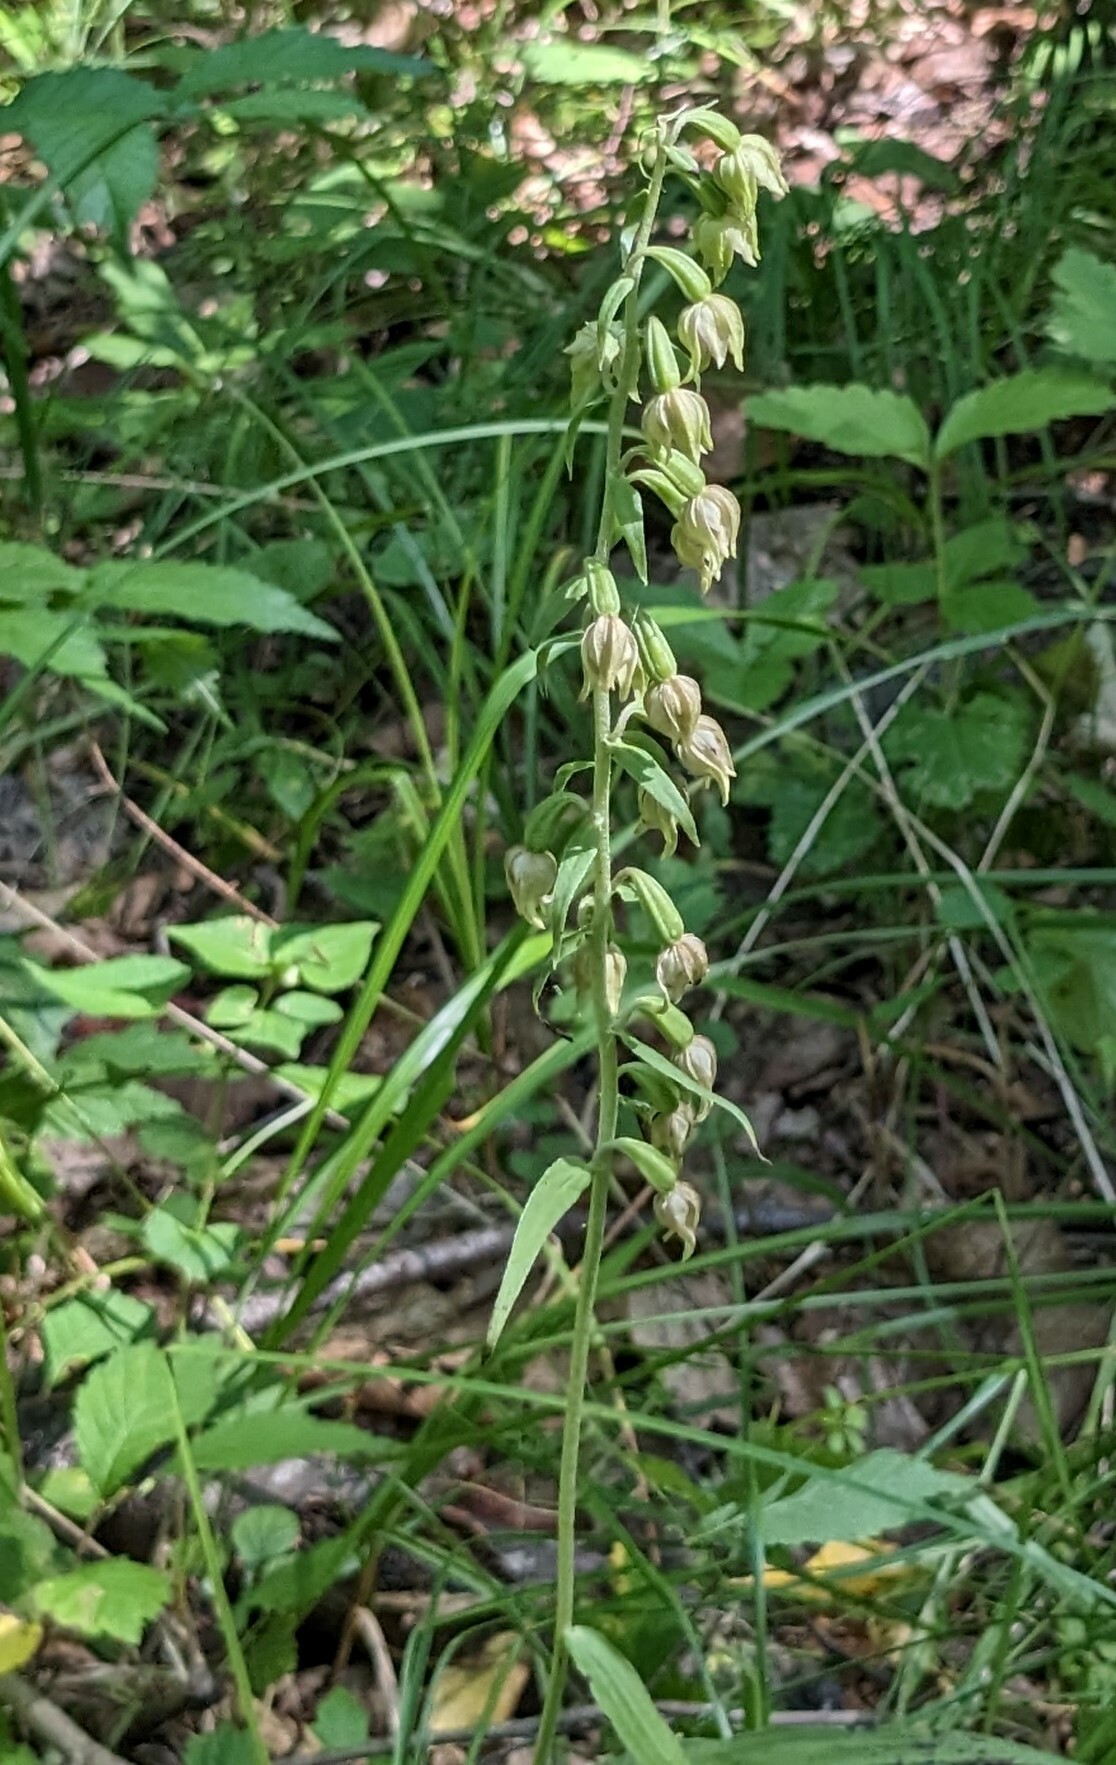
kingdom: Plantae
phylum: Tracheophyta
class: Liliopsida
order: Asparagales
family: Orchidaceae
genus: Epipactis
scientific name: Epipactis papillosa
